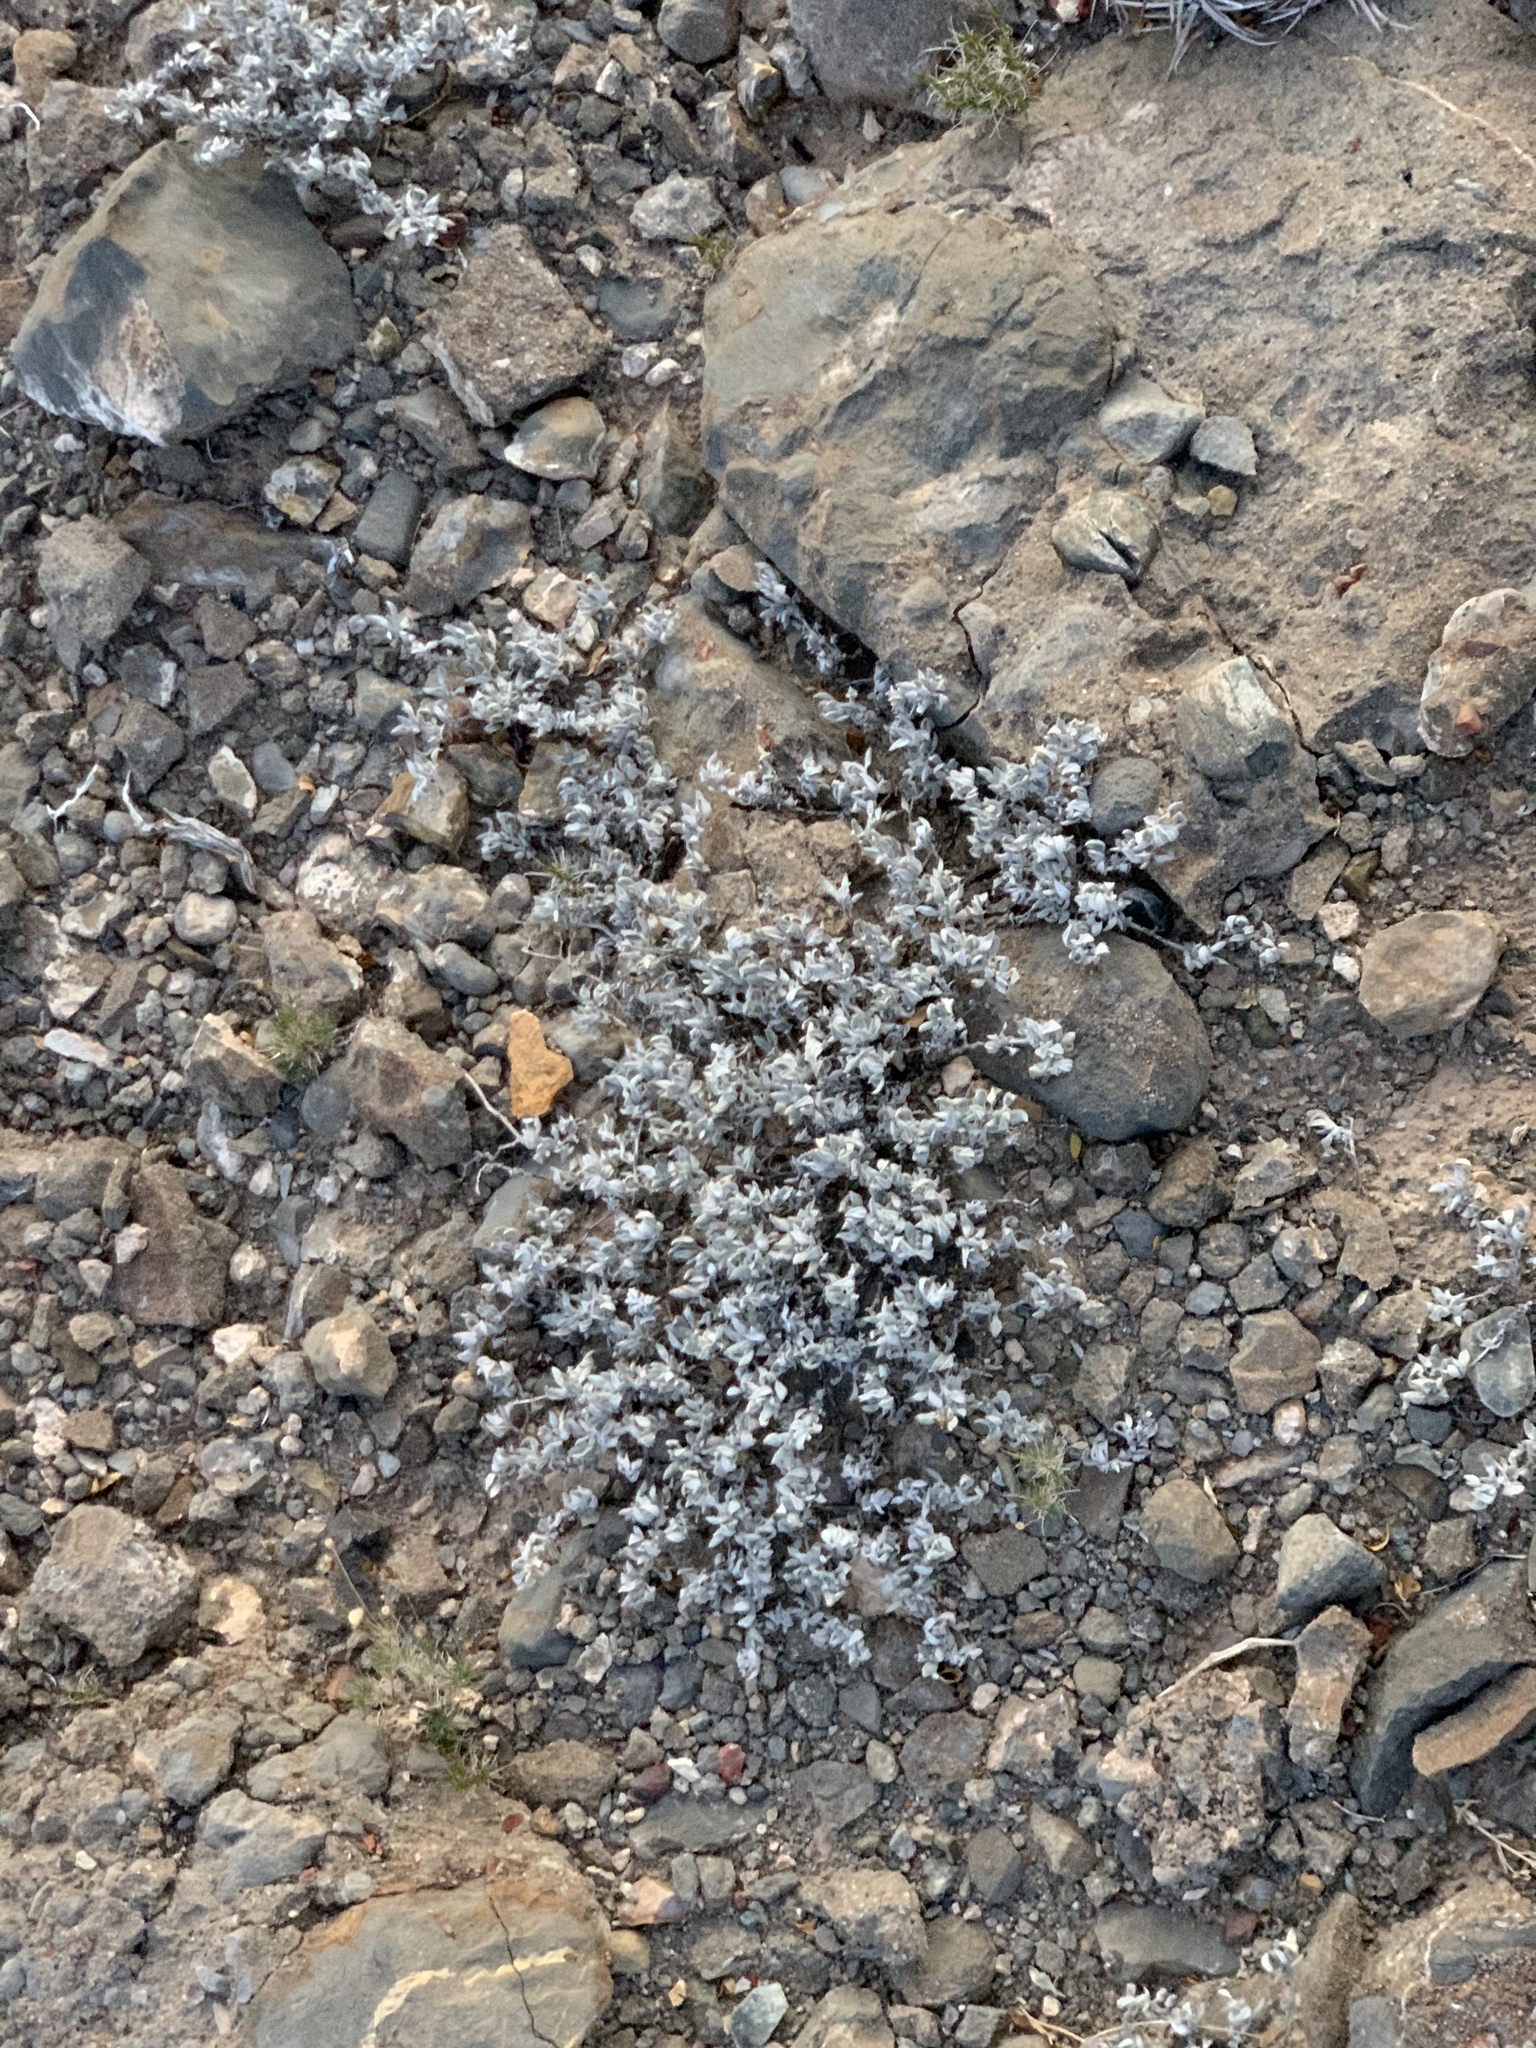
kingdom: Plantae
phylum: Tracheophyta
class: Magnoliopsida
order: Boraginales
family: Ehretiaceae
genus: Tiquilia
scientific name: Tiquilia canescens
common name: Hairy tiquilia
